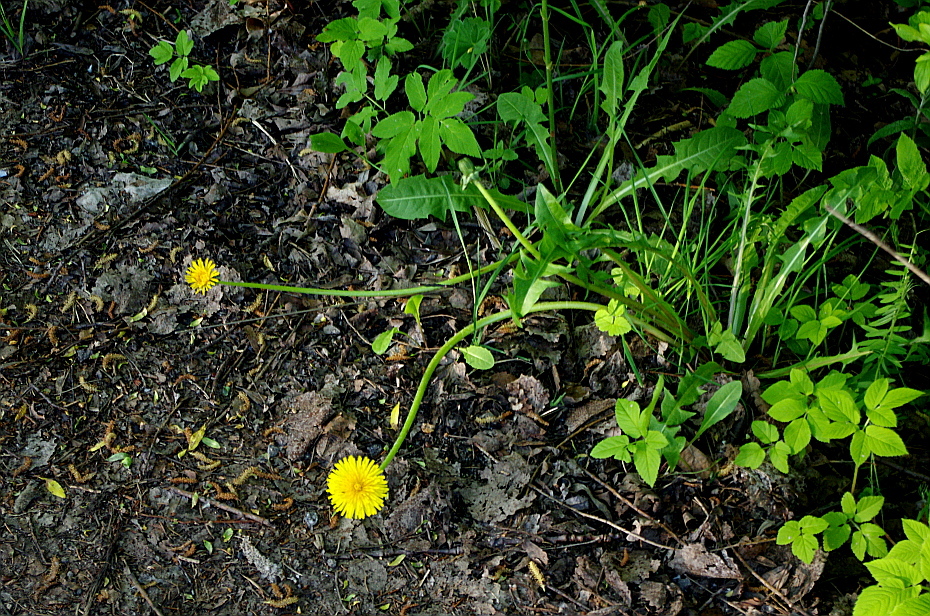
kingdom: Plantae
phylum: Tracheophyta
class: Magnoliopsida
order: Asterales
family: Asteraceae
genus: Taraxacum
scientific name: Taraxacum officinale
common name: Common dandelion
